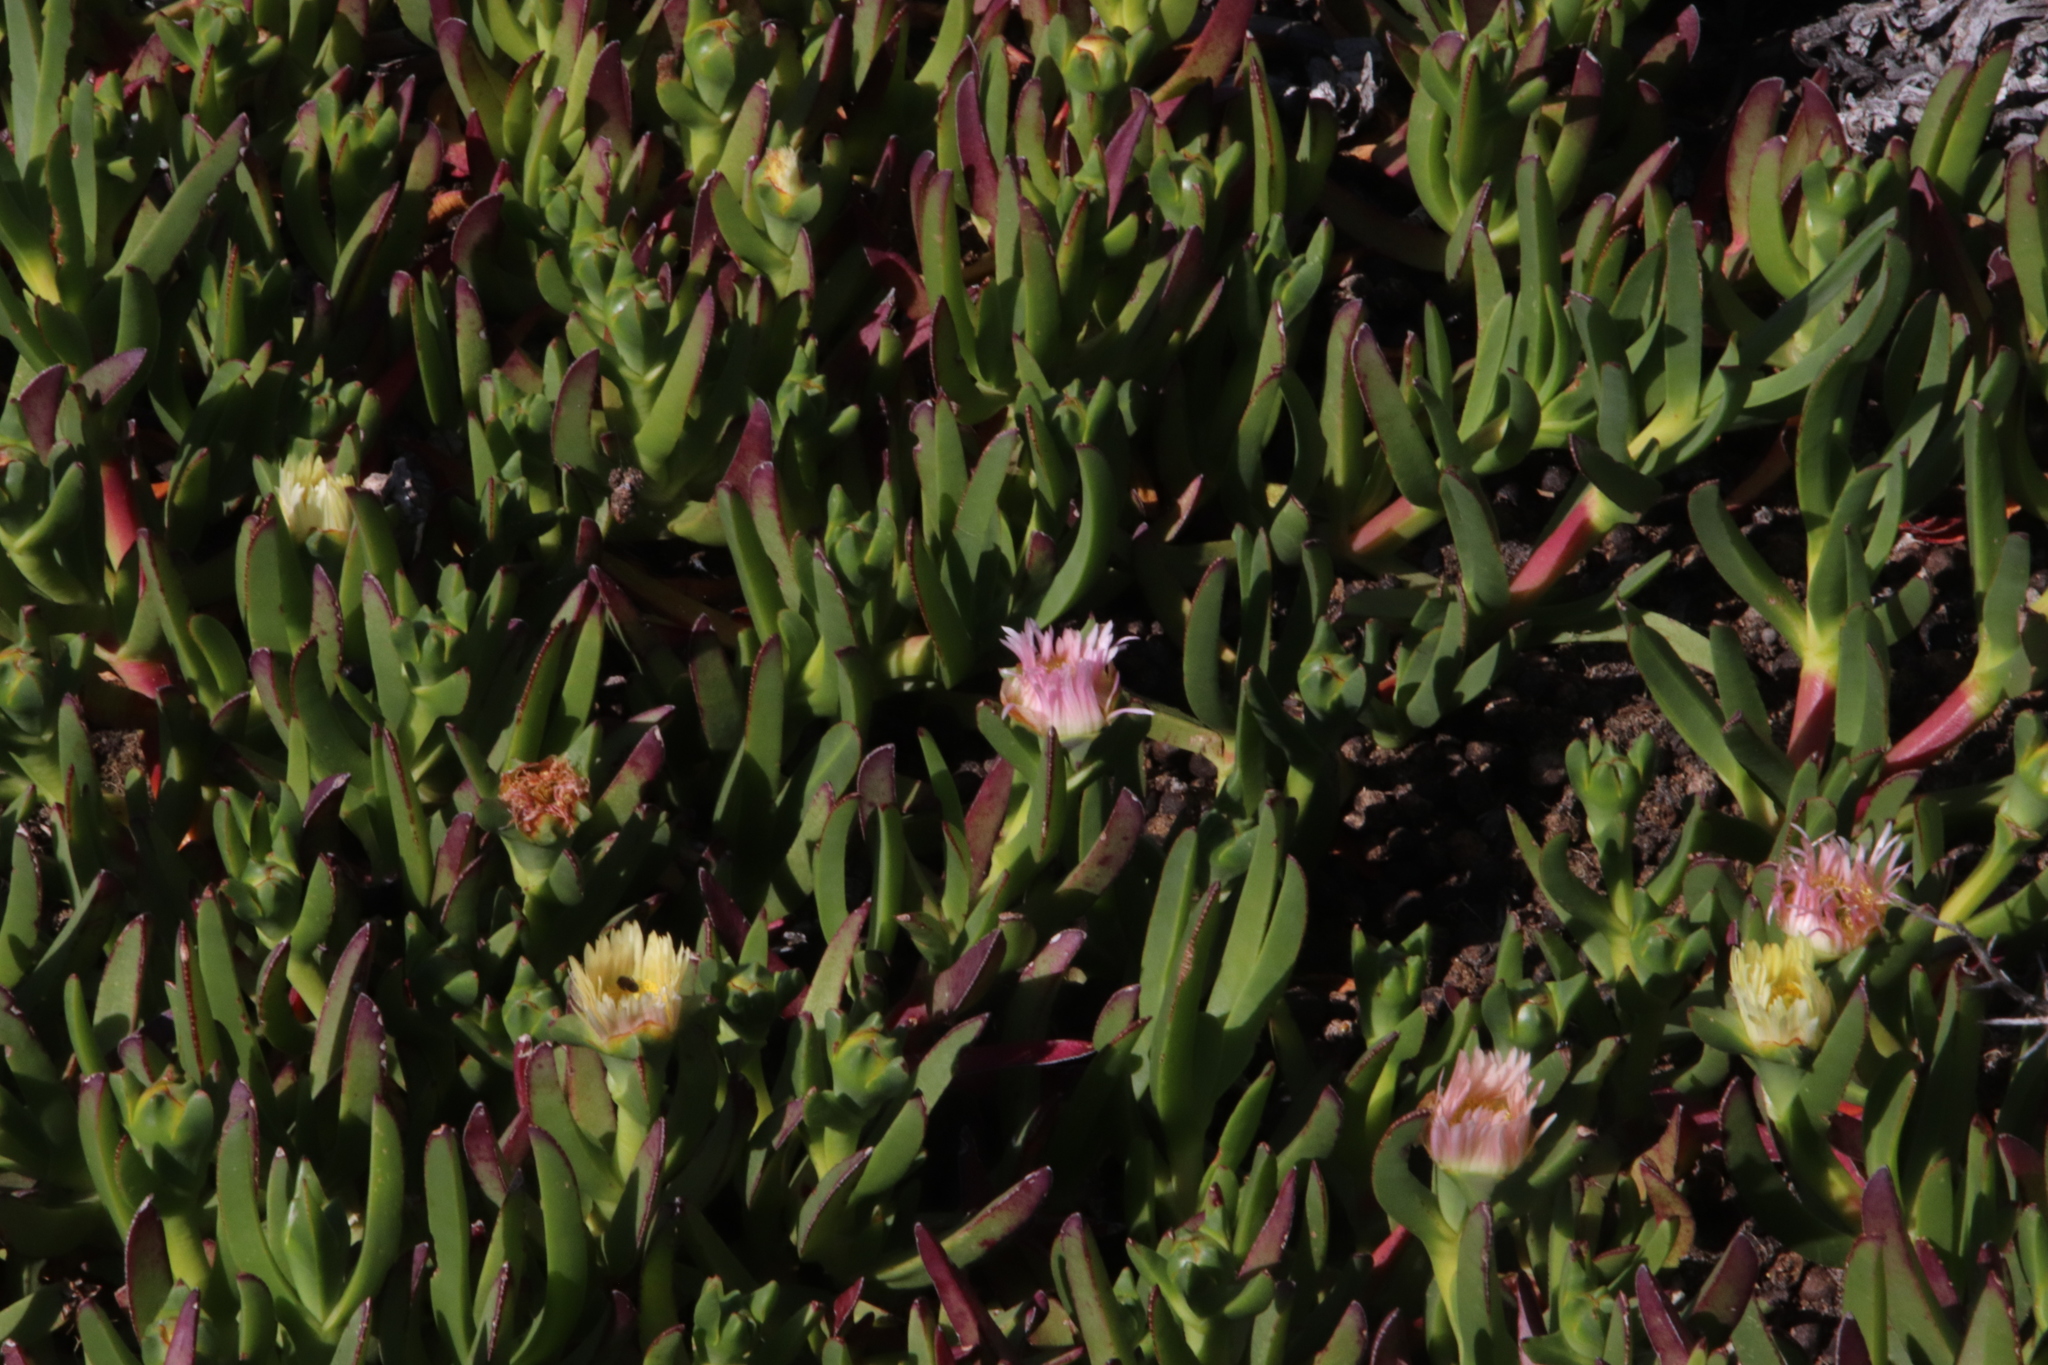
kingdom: Plantae
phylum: Tracheophyta
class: Magnoliopsida
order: Caryophyllales
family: Aizoaceae
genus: Carpobrotus
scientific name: Carpobrotus edulis
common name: Hottentot-fig
